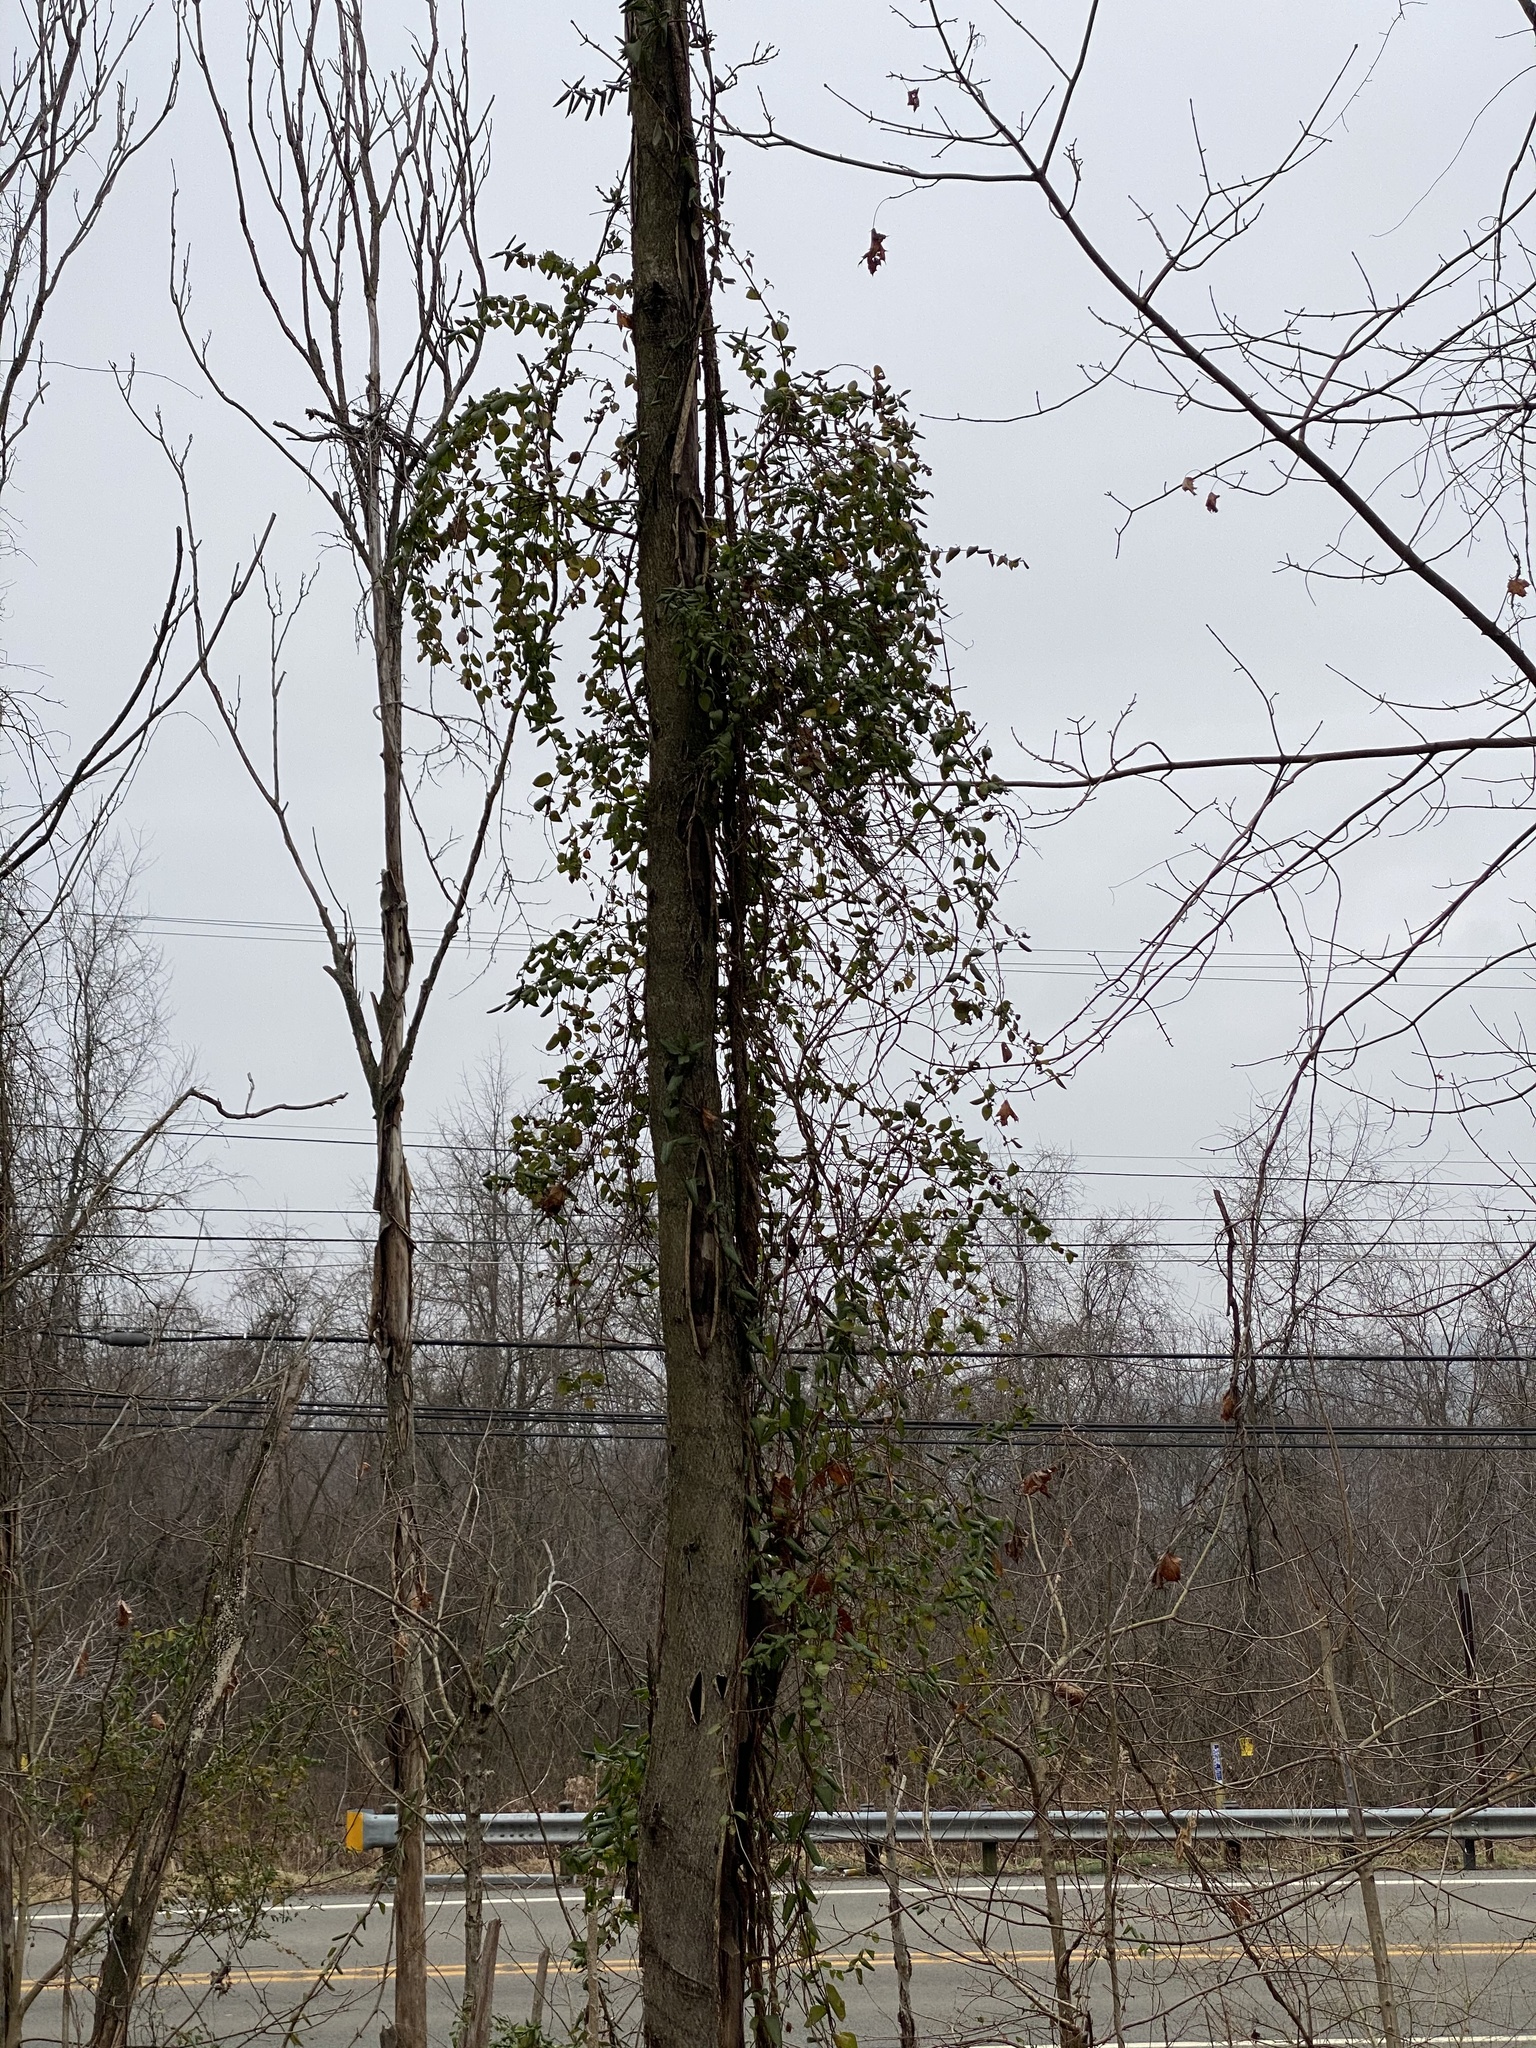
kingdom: Plantae
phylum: Tracheophyta
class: Magnoliopsida
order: Dipsacales
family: Caprifoliaceae
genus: Lonicera
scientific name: Lonicera japonica
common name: Japanese honeysuckle
